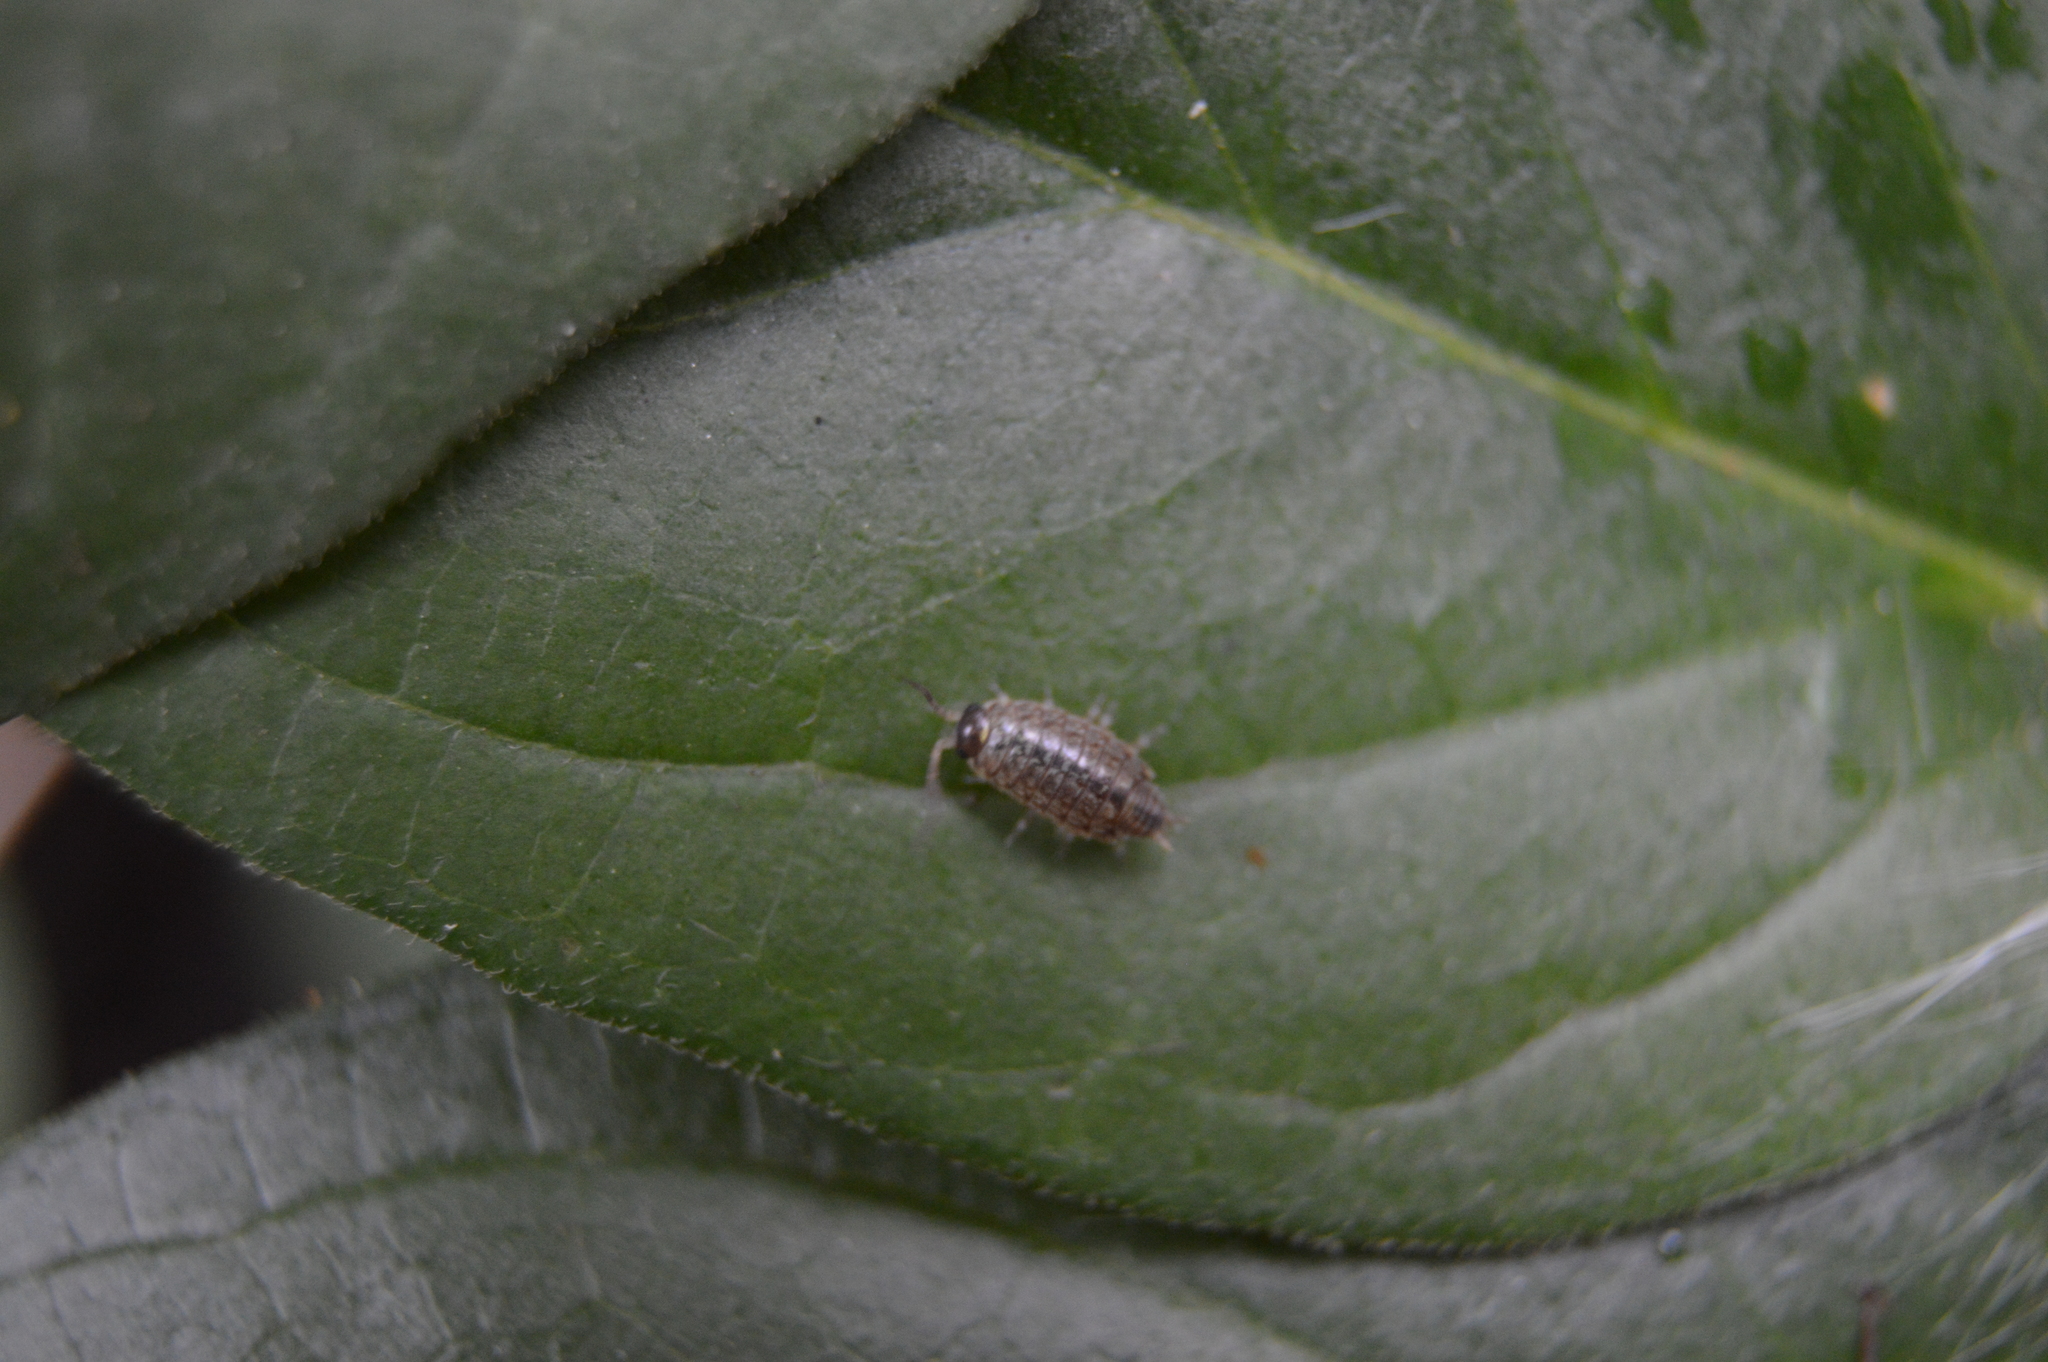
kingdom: Animalia
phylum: Arthropoda
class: Malacostraca
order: Isopoda
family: Philosciidae
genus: Philoscia
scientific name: Philoscia muscorum
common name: Common striped woodlouse
